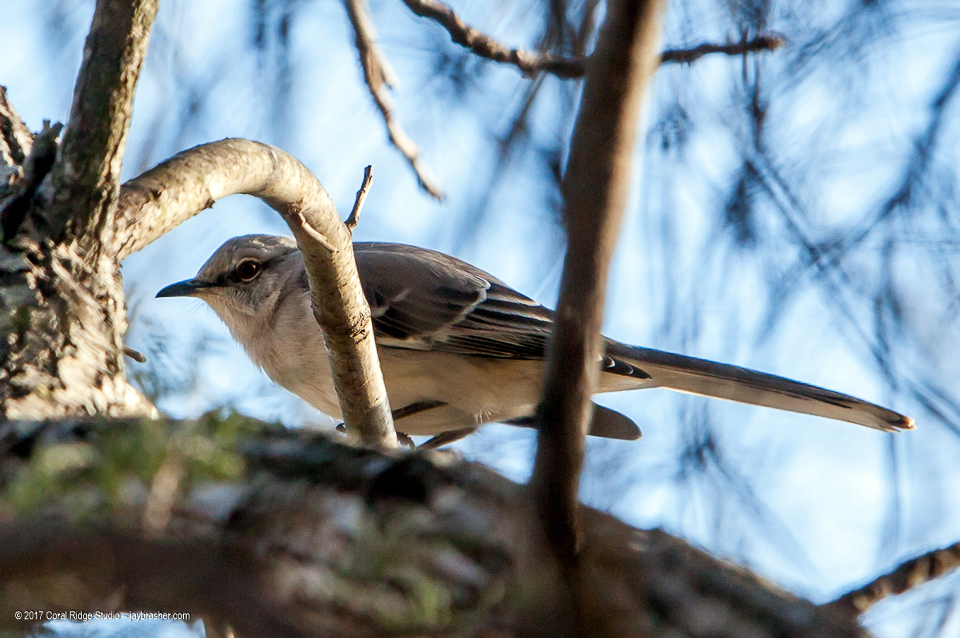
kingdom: Animalia
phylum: Chordata
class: Aves
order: Passeriformes
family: Mimidae
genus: Mimus
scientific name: Mimus polyglottos
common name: Northern mockingbird
